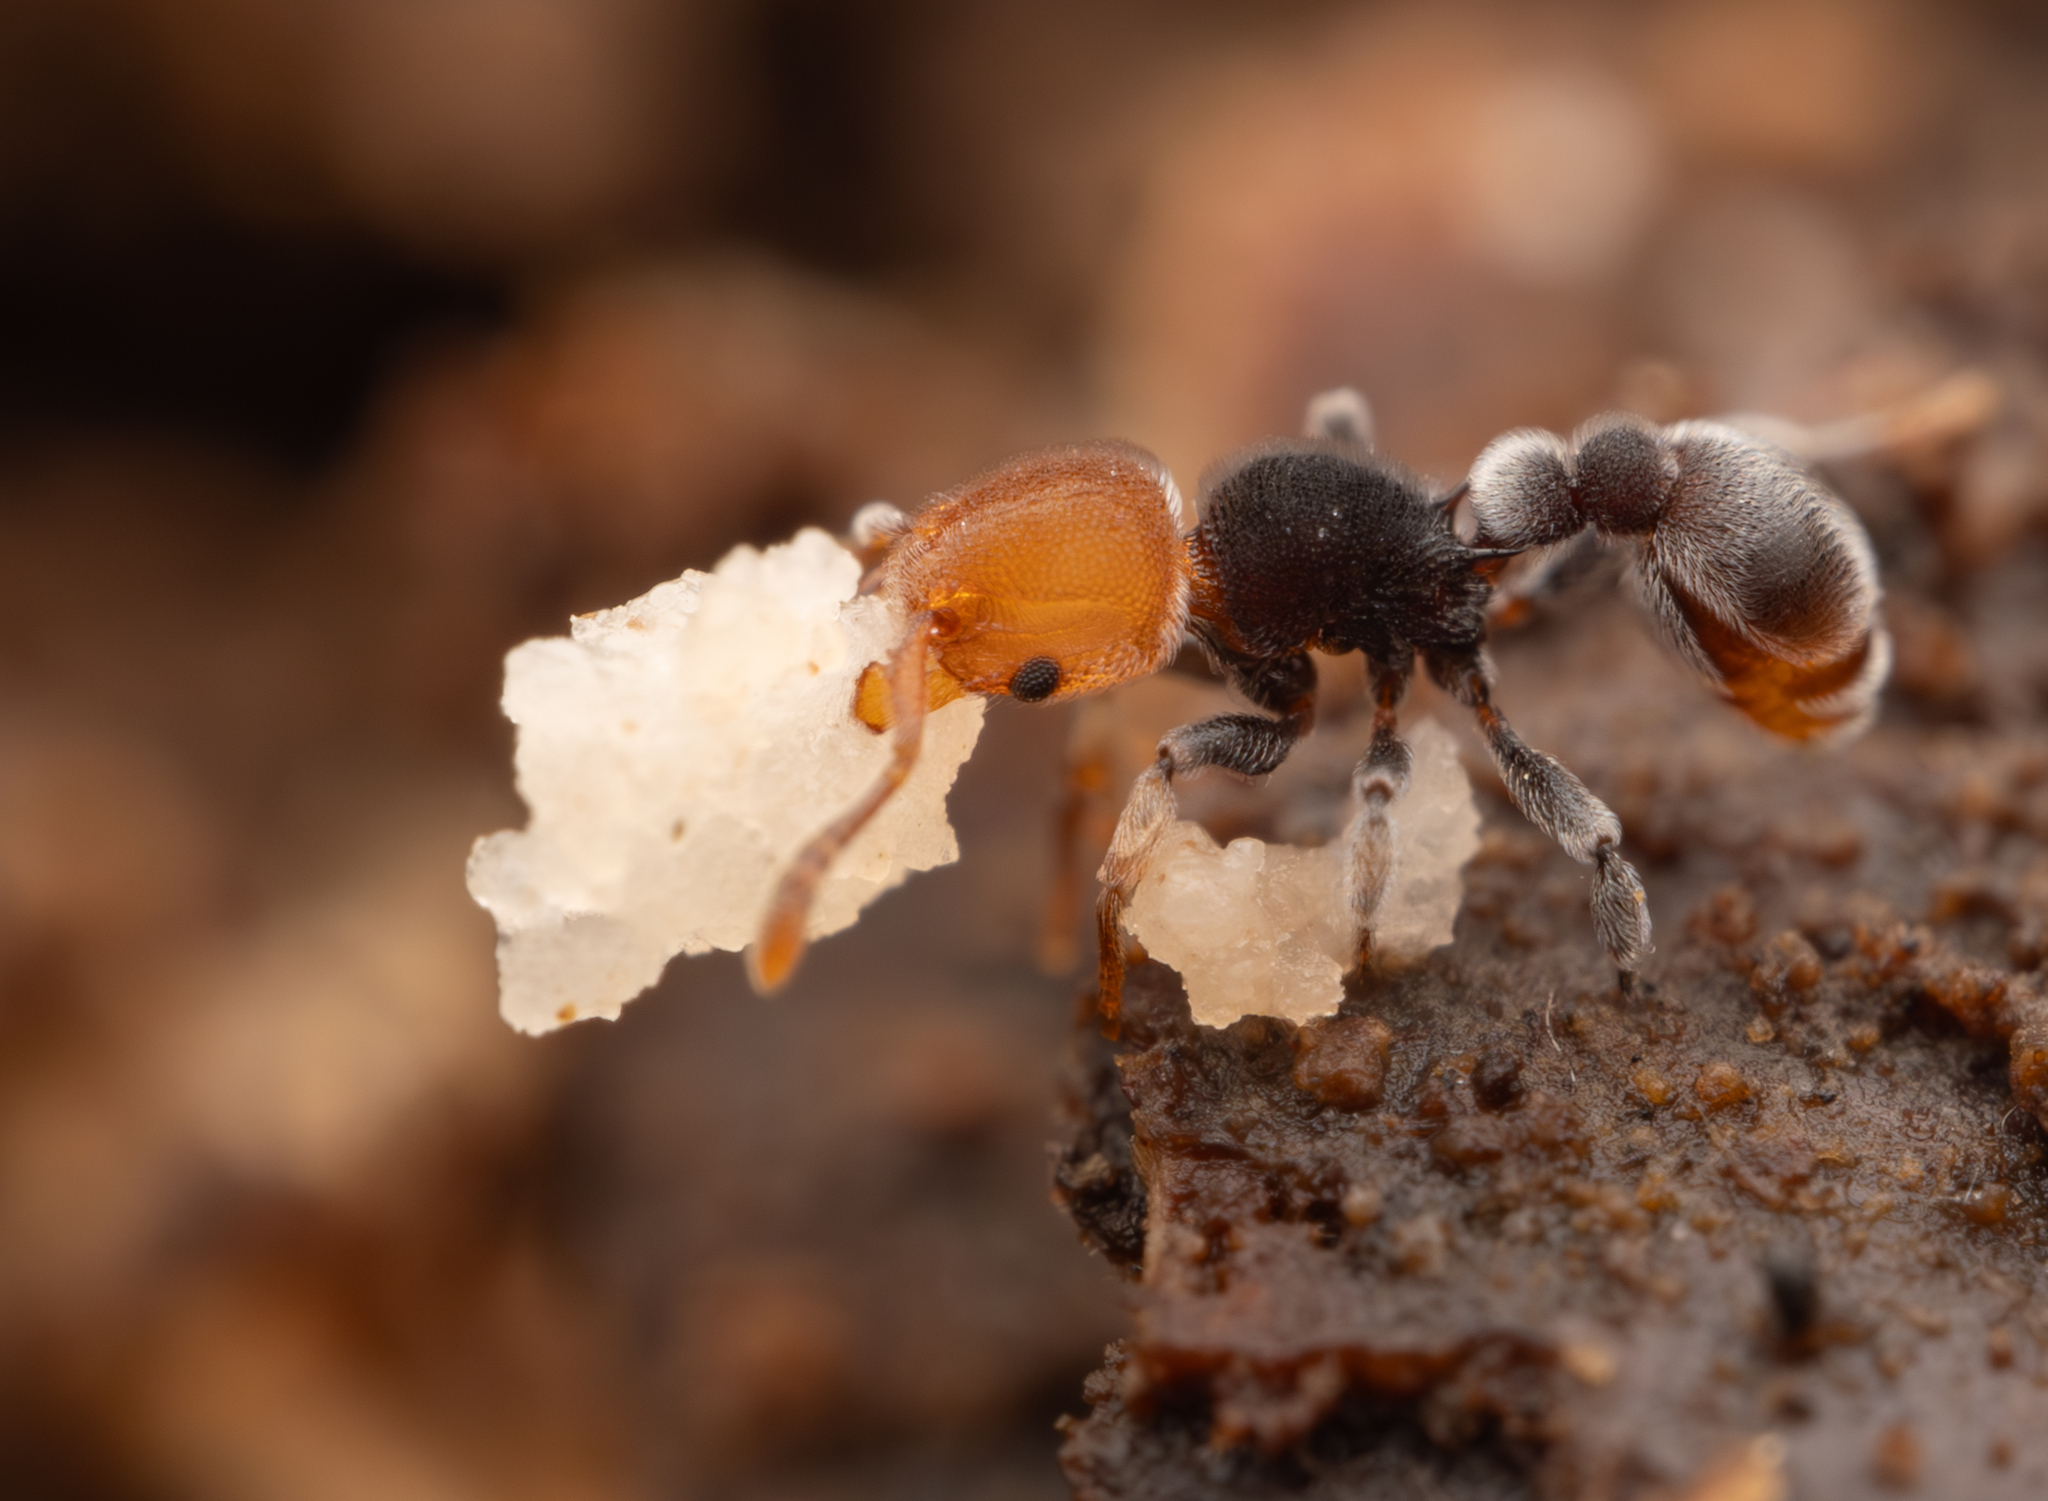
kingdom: Animalia
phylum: Arthropoda
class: Insecta
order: Hymenoptera
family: Formicidae
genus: Tetramorium
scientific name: Tetramorium fulviceps
